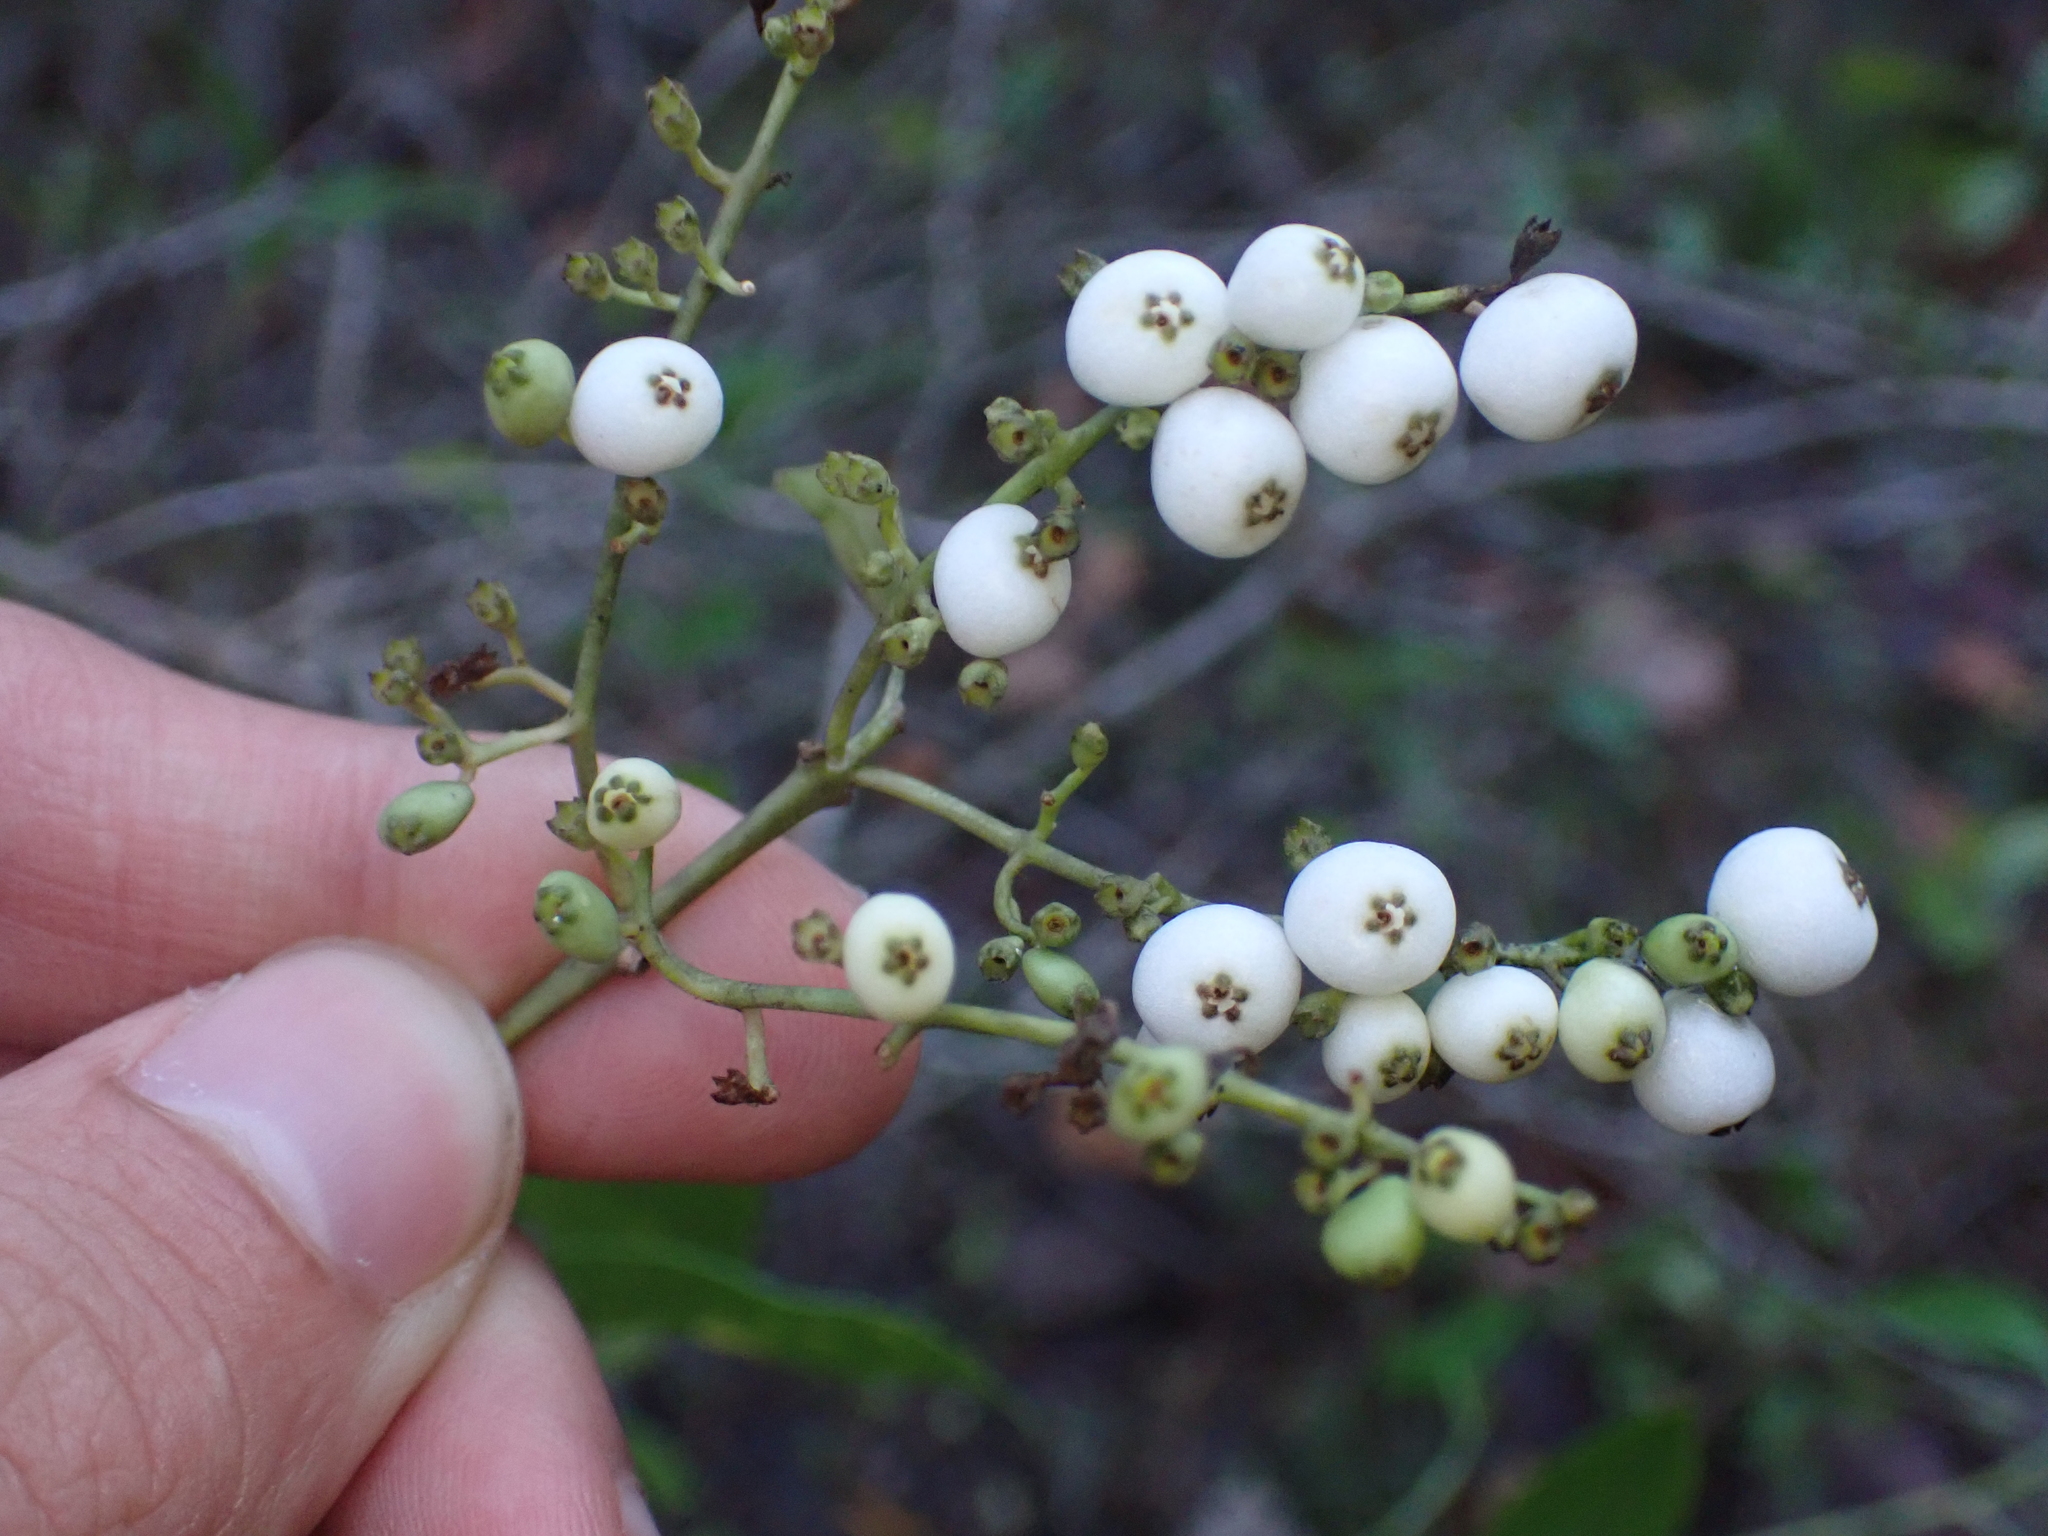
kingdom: Plantae
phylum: Tracheophyta
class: Magnoliopsida
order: Gentianales
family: Rubiaceae
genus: Chiococca
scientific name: Chiococca alba
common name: Snowberry
